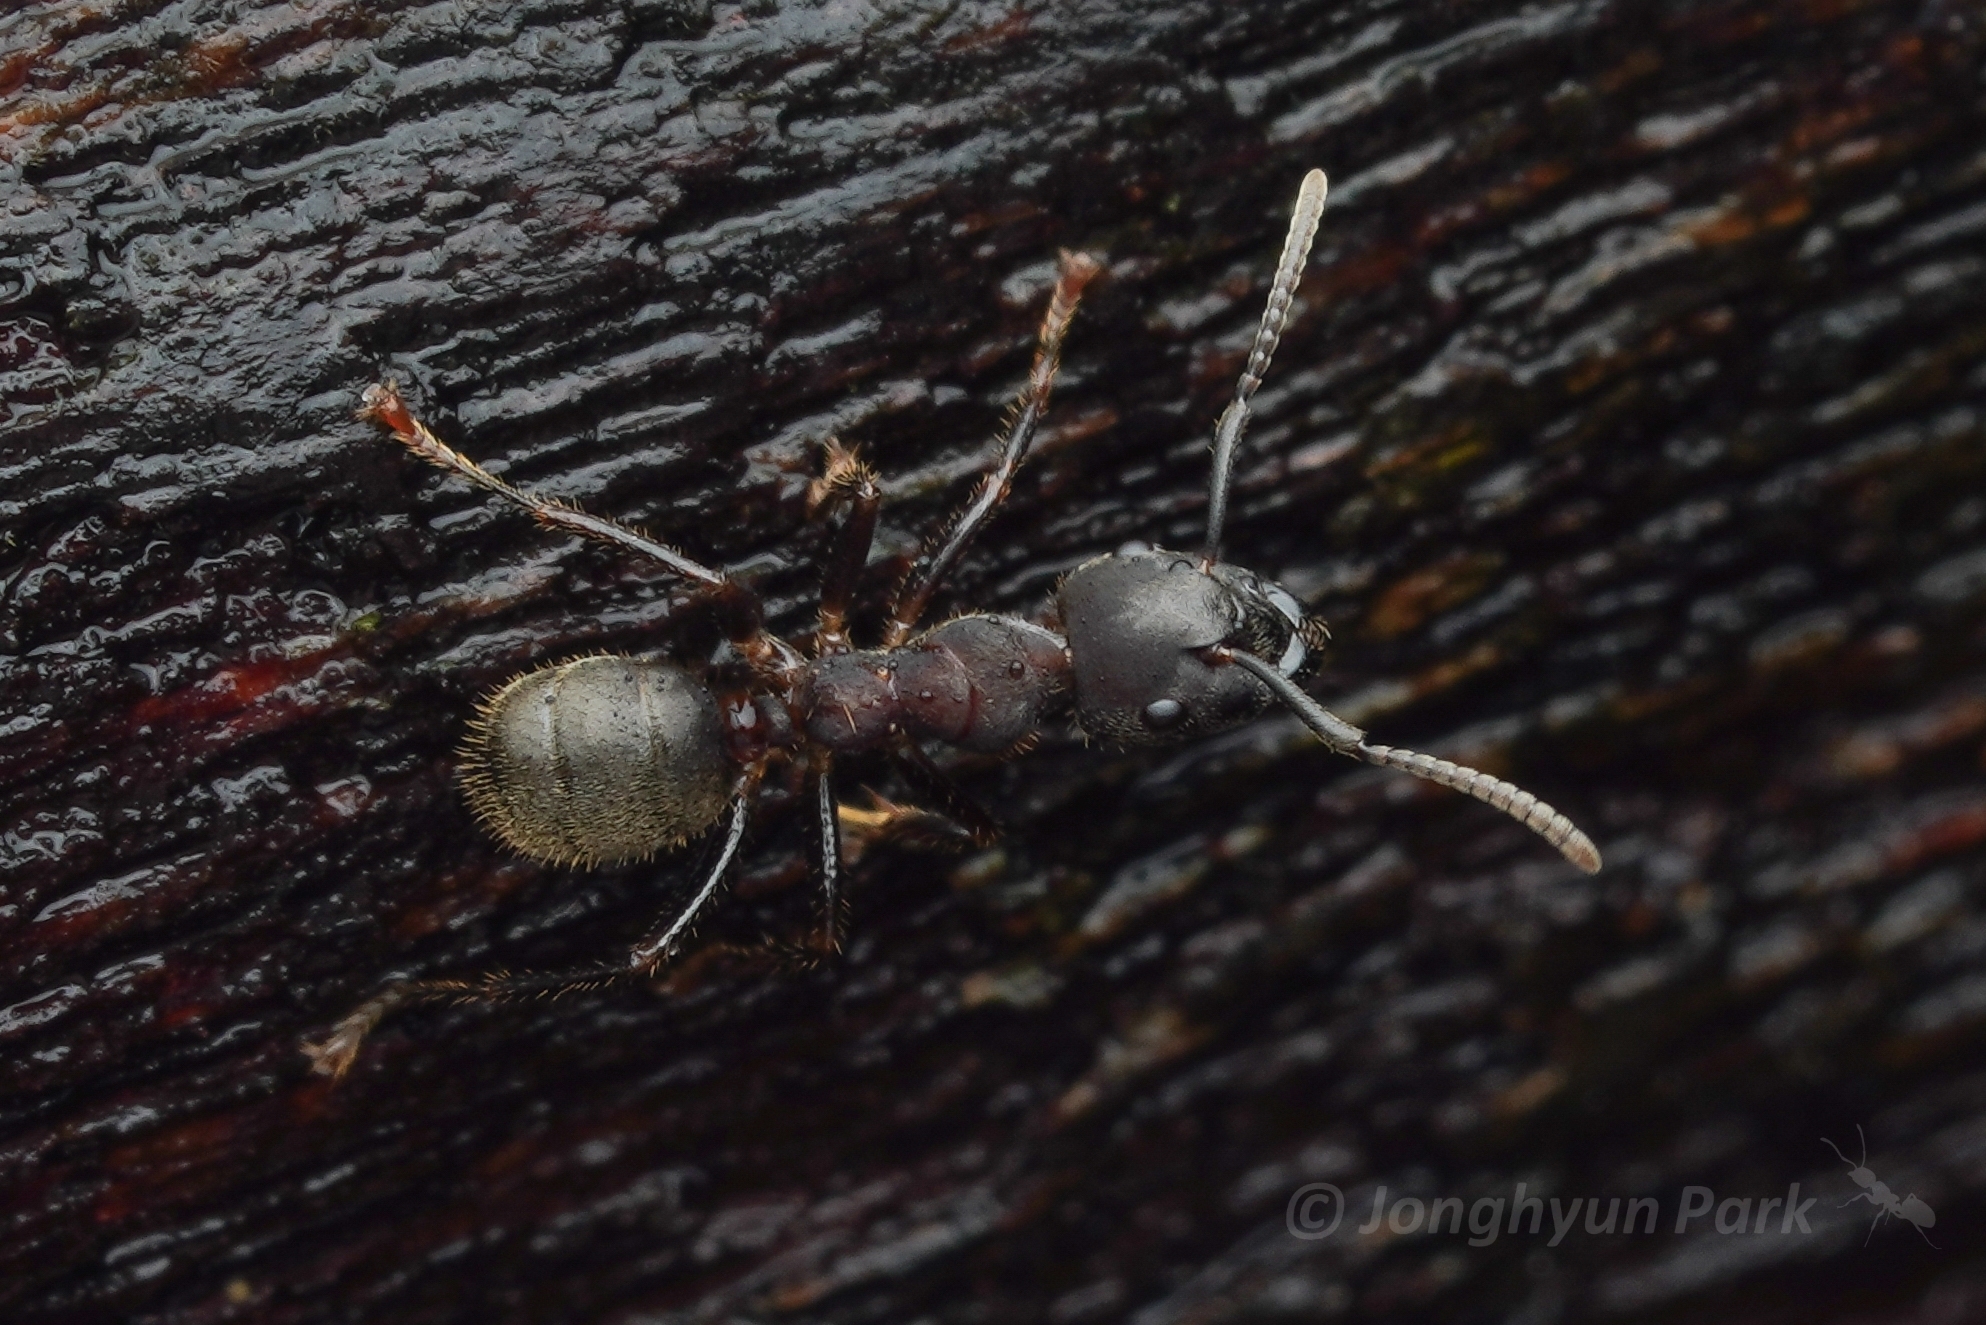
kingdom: Animalia
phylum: Arthropoda
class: Insecta
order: Hymenoptera
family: Formicidae
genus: Camponotus
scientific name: Camponotus megalonyx
